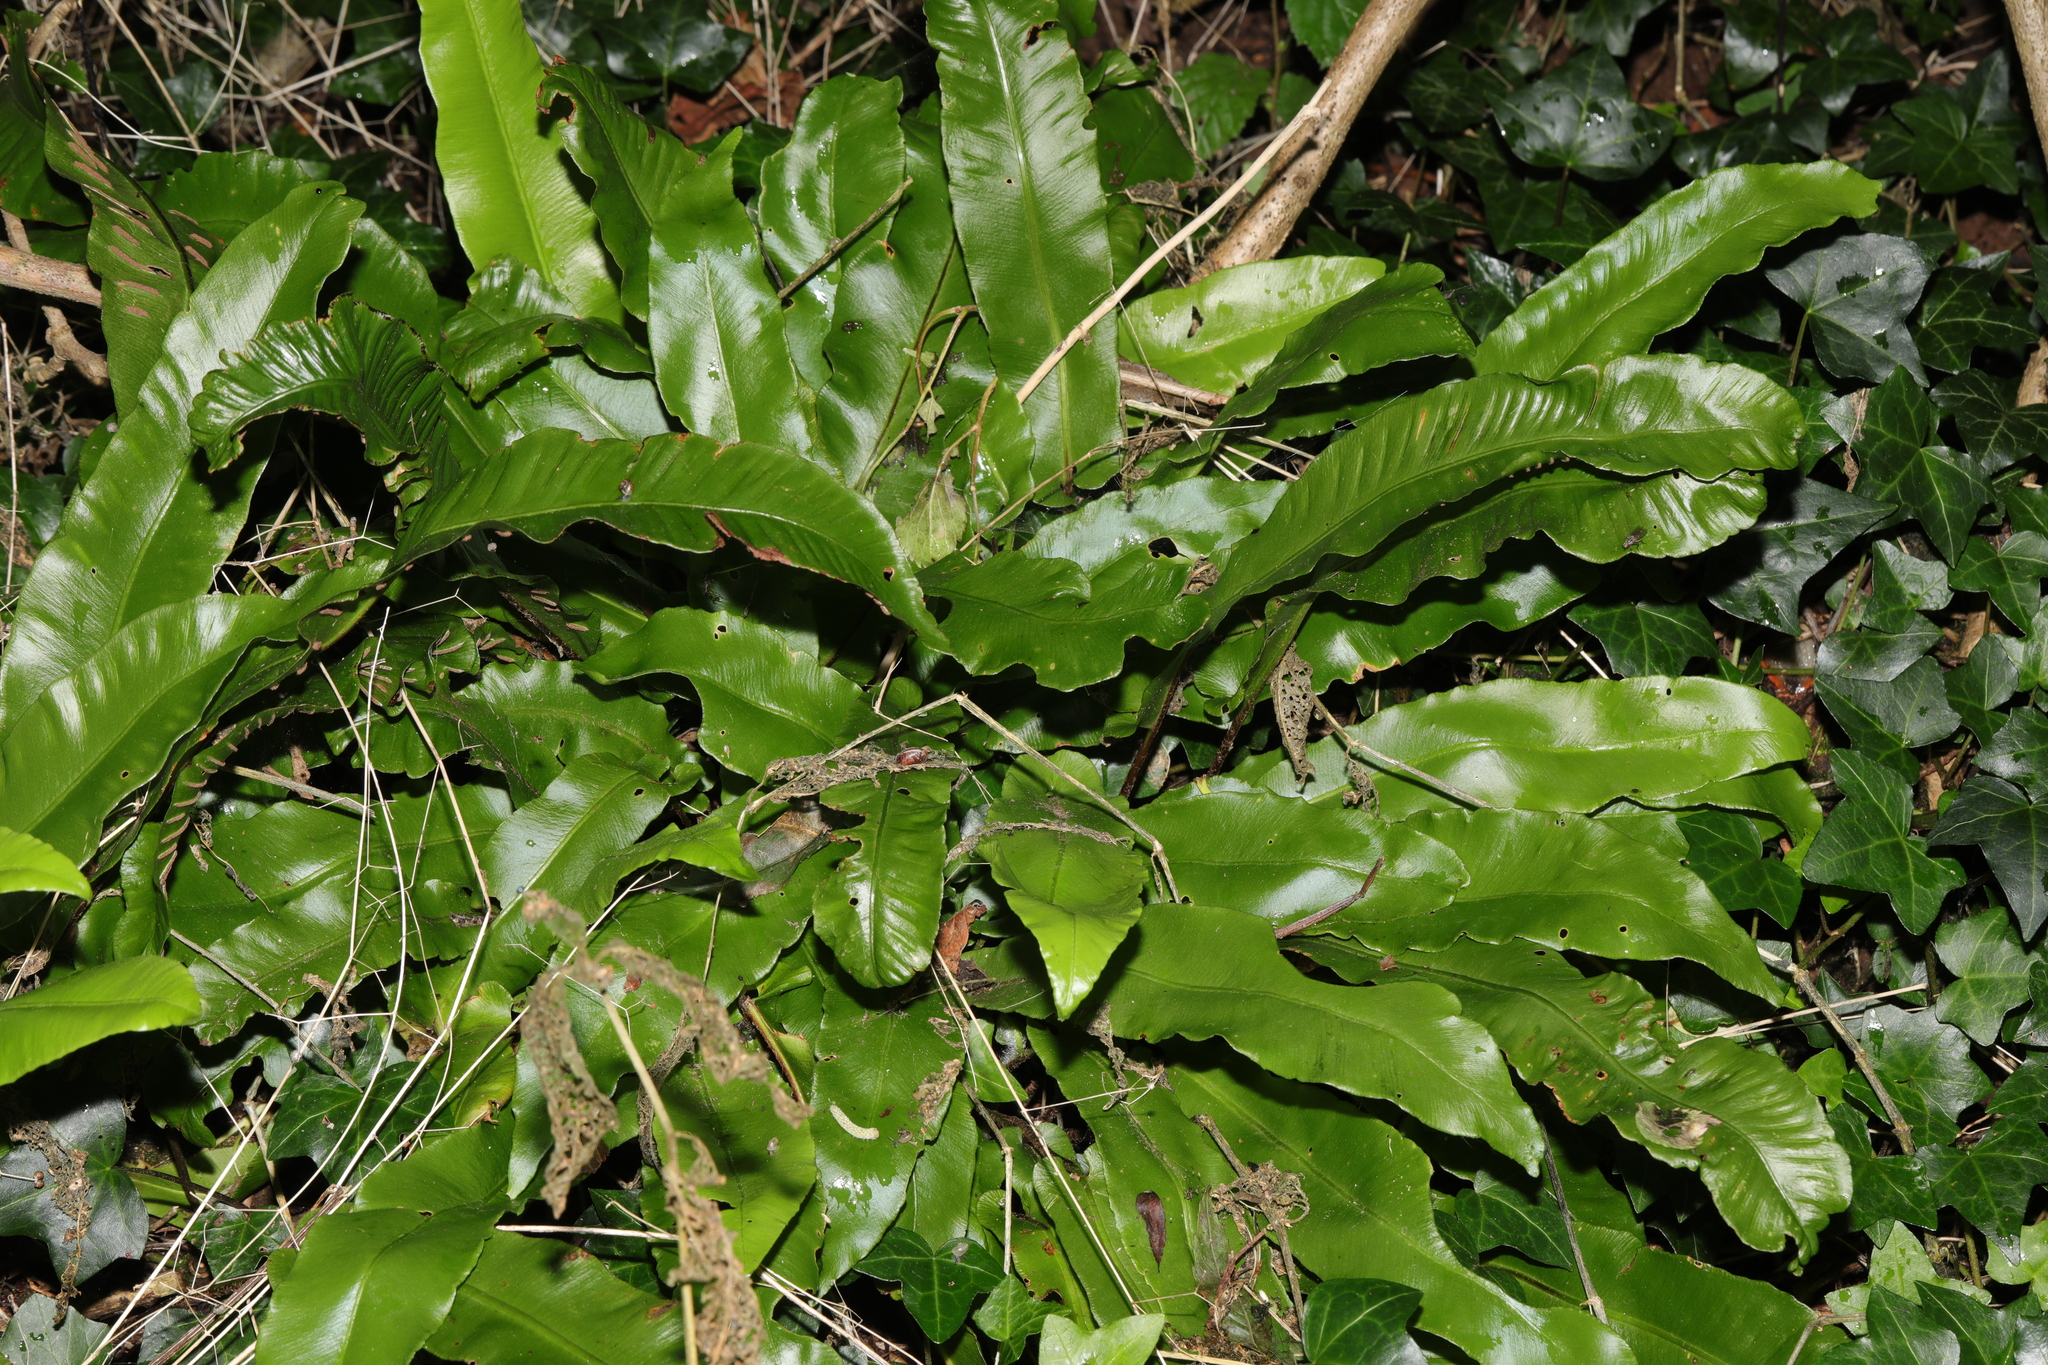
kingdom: Plantae
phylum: Tracheophyta
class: Polypodiopsida
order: Polypodiales
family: Aspleniaceae
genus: Asplenium
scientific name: Asplenium scolopendrium
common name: Hart's-tongue fern
